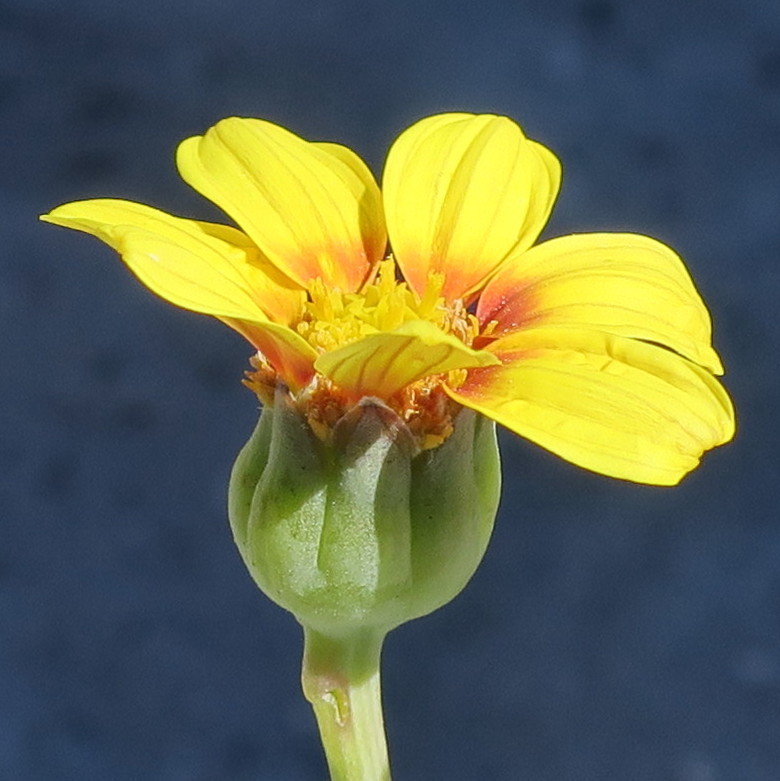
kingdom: Plantae
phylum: Tracheophyta
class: Magnoliopsida
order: Asterales
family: Asteraceae
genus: Othonna
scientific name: Othonna coronopifolia
